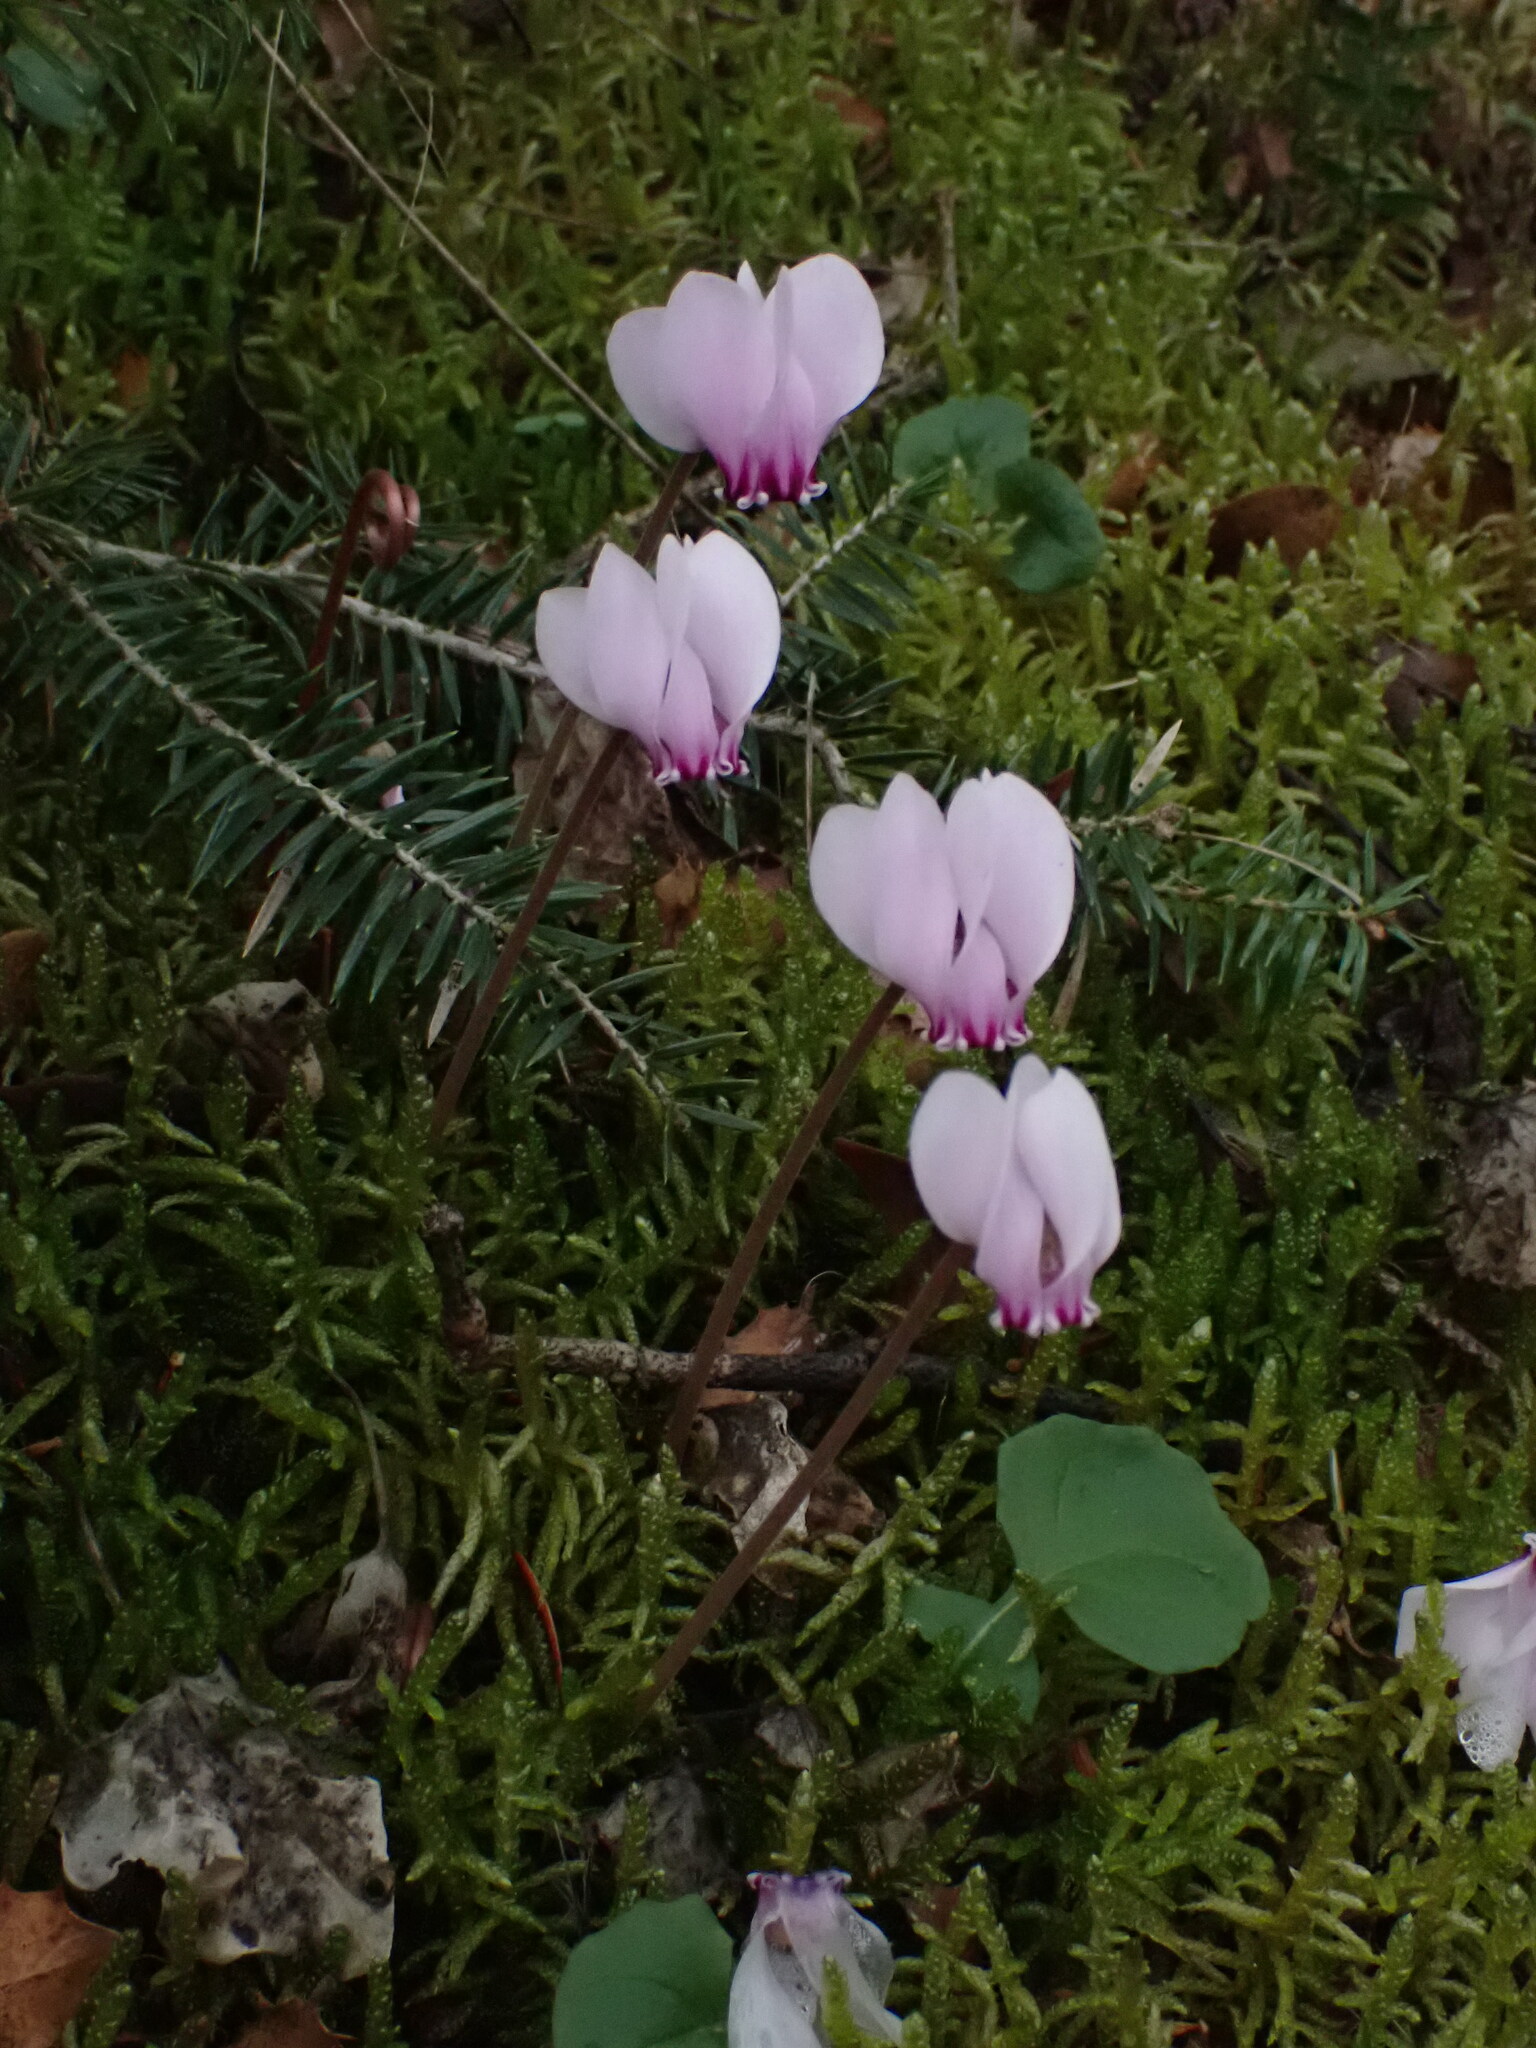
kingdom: Plantae
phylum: Tracheophyta
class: Magnoliopsida
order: Ericales
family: Primulaceae
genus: Cyclamen
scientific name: Cyclamen hederifolium
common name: Sowbread
